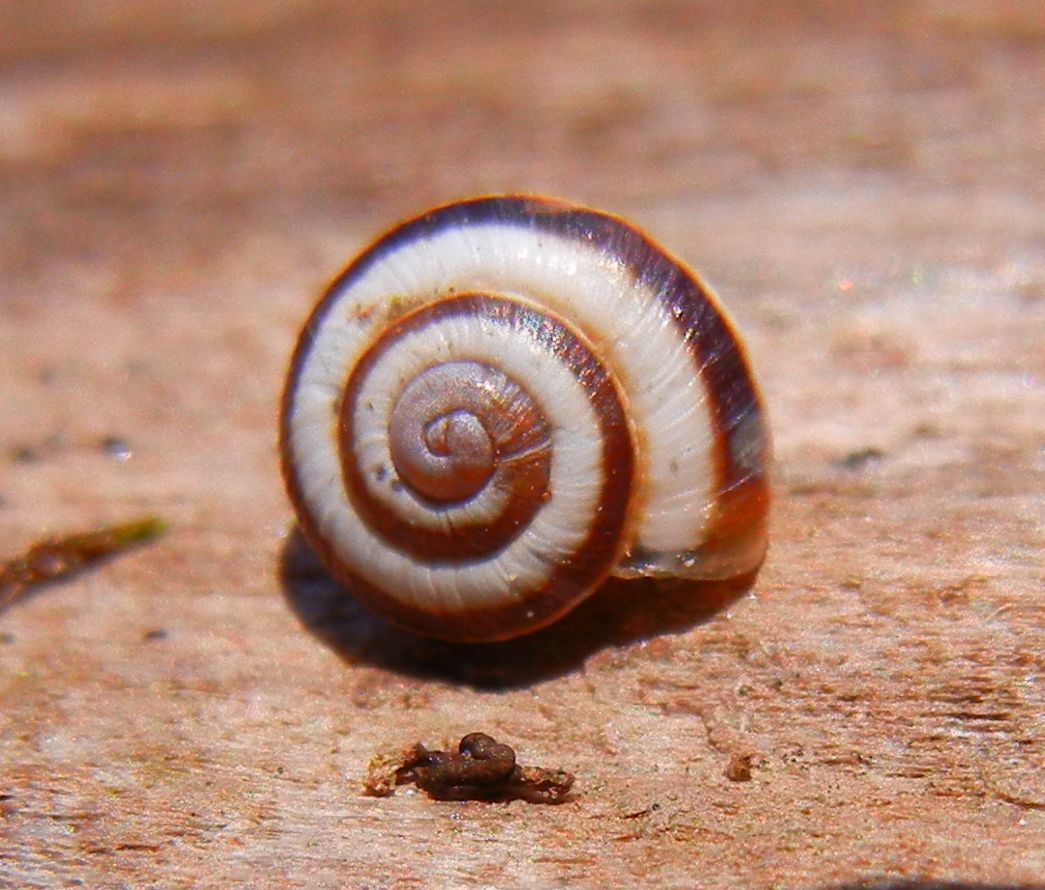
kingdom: Animalia
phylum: Mollusca
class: Gastropoda
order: Stylommatophora
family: Geomitridae
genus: Cernuella
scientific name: Cernuella virgata
